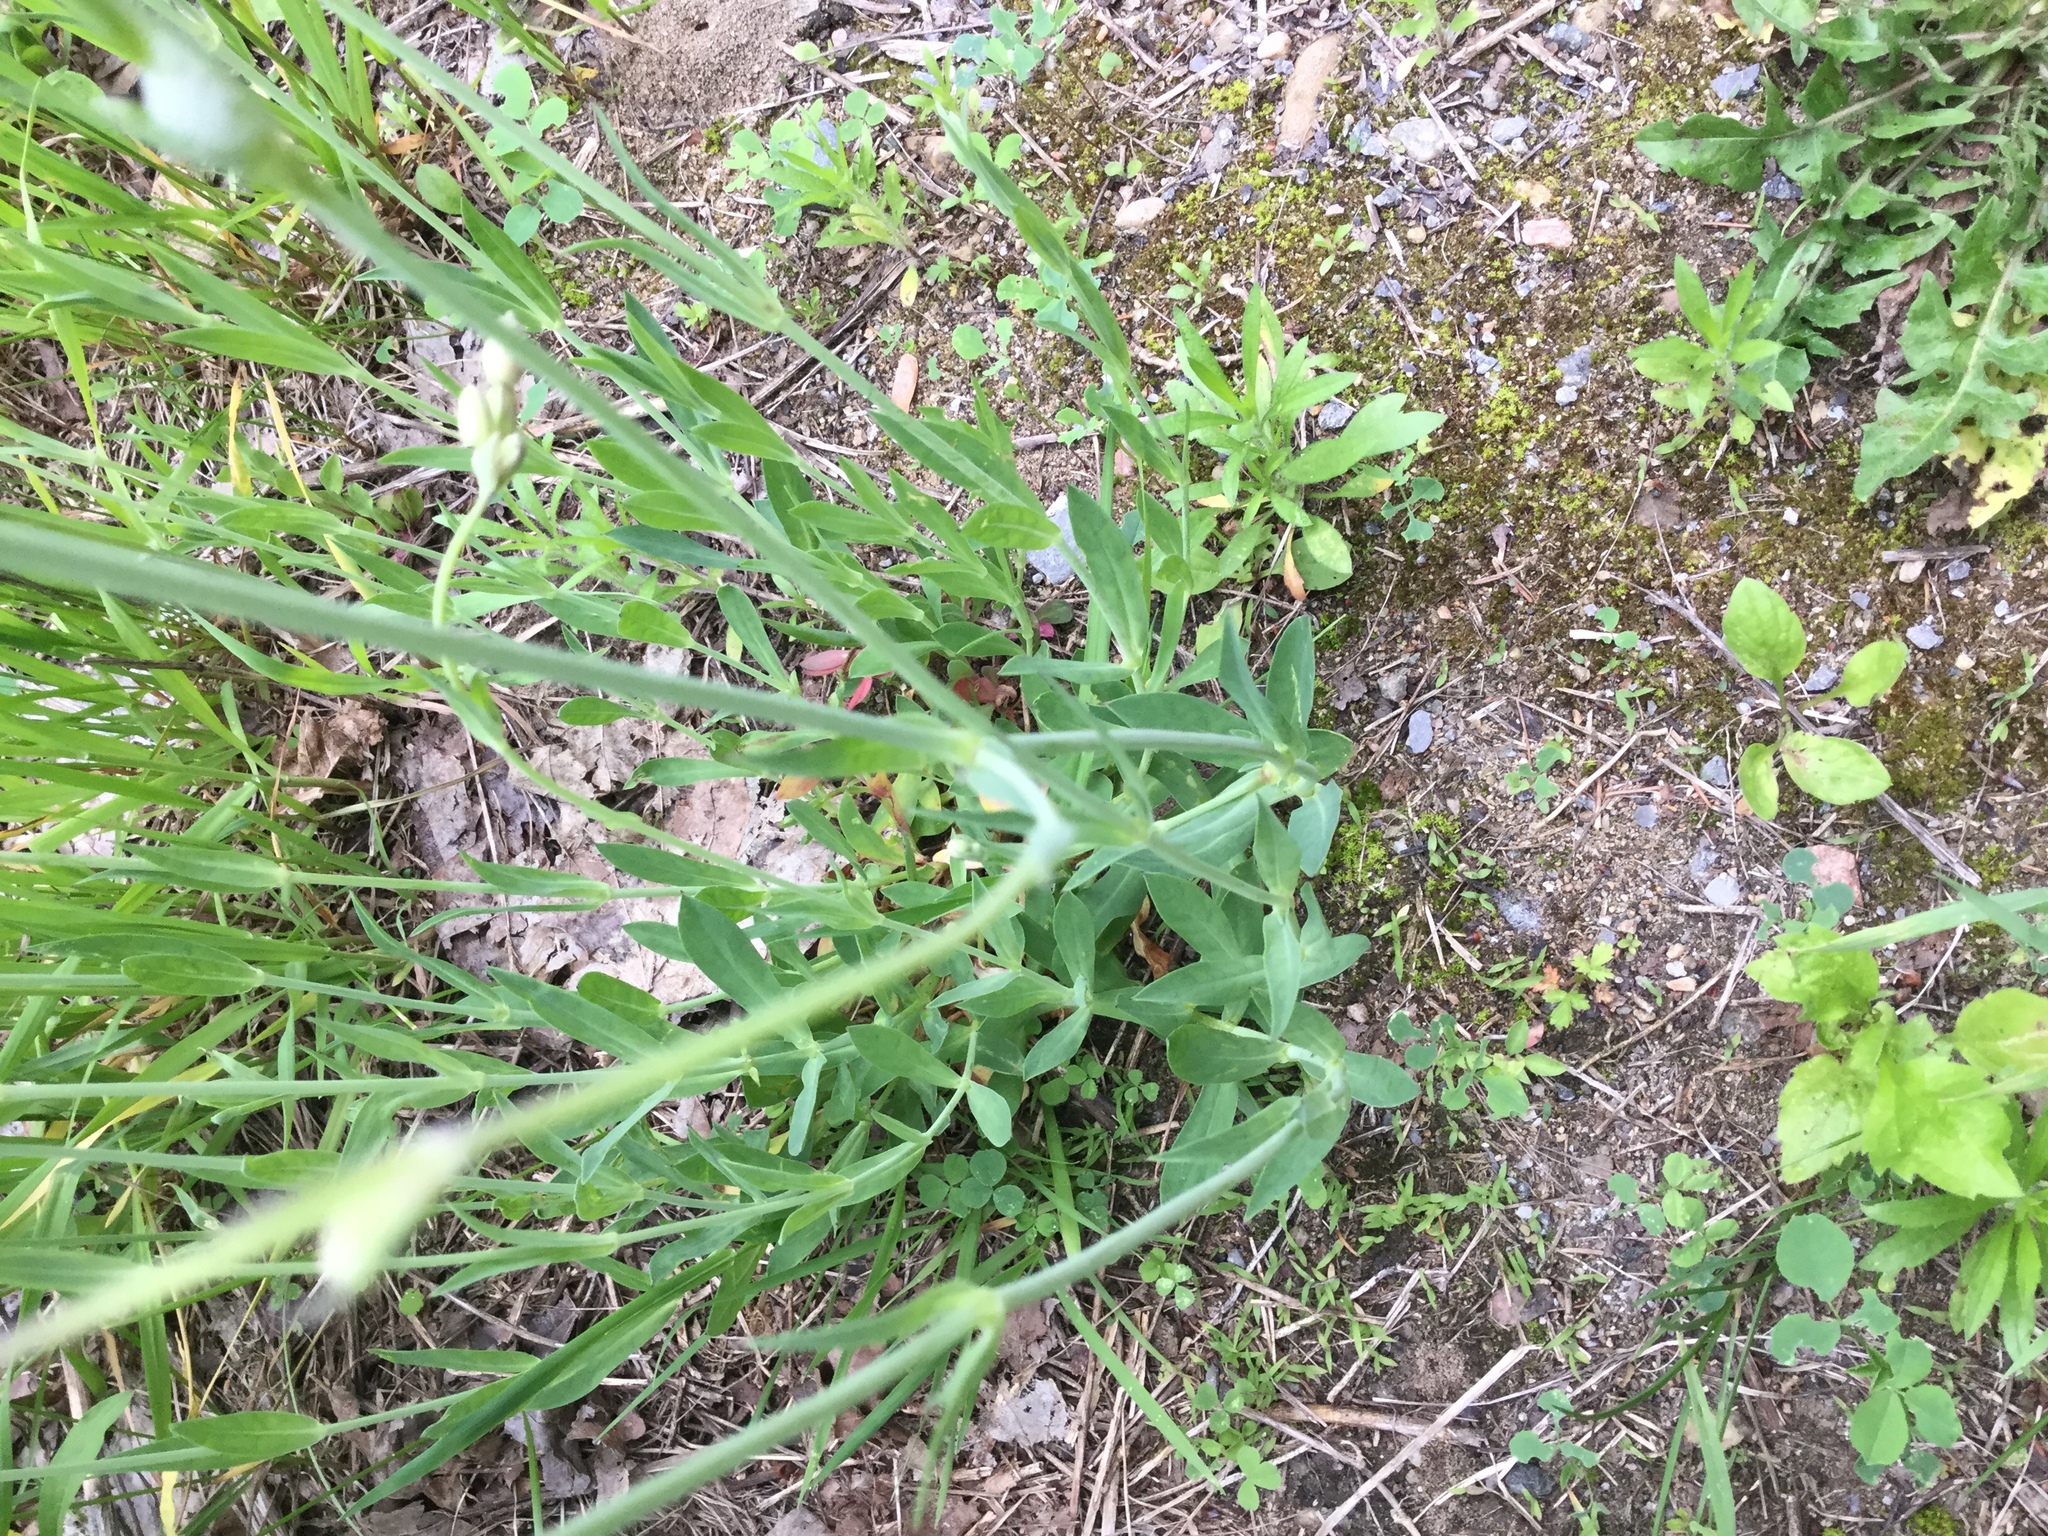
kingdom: Plantae
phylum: Tracheophyta
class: Magnoliopsida
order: Caryophyllales
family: Caryophyllaceae
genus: Silene
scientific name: Silene vulgaris
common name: Bladder campion
